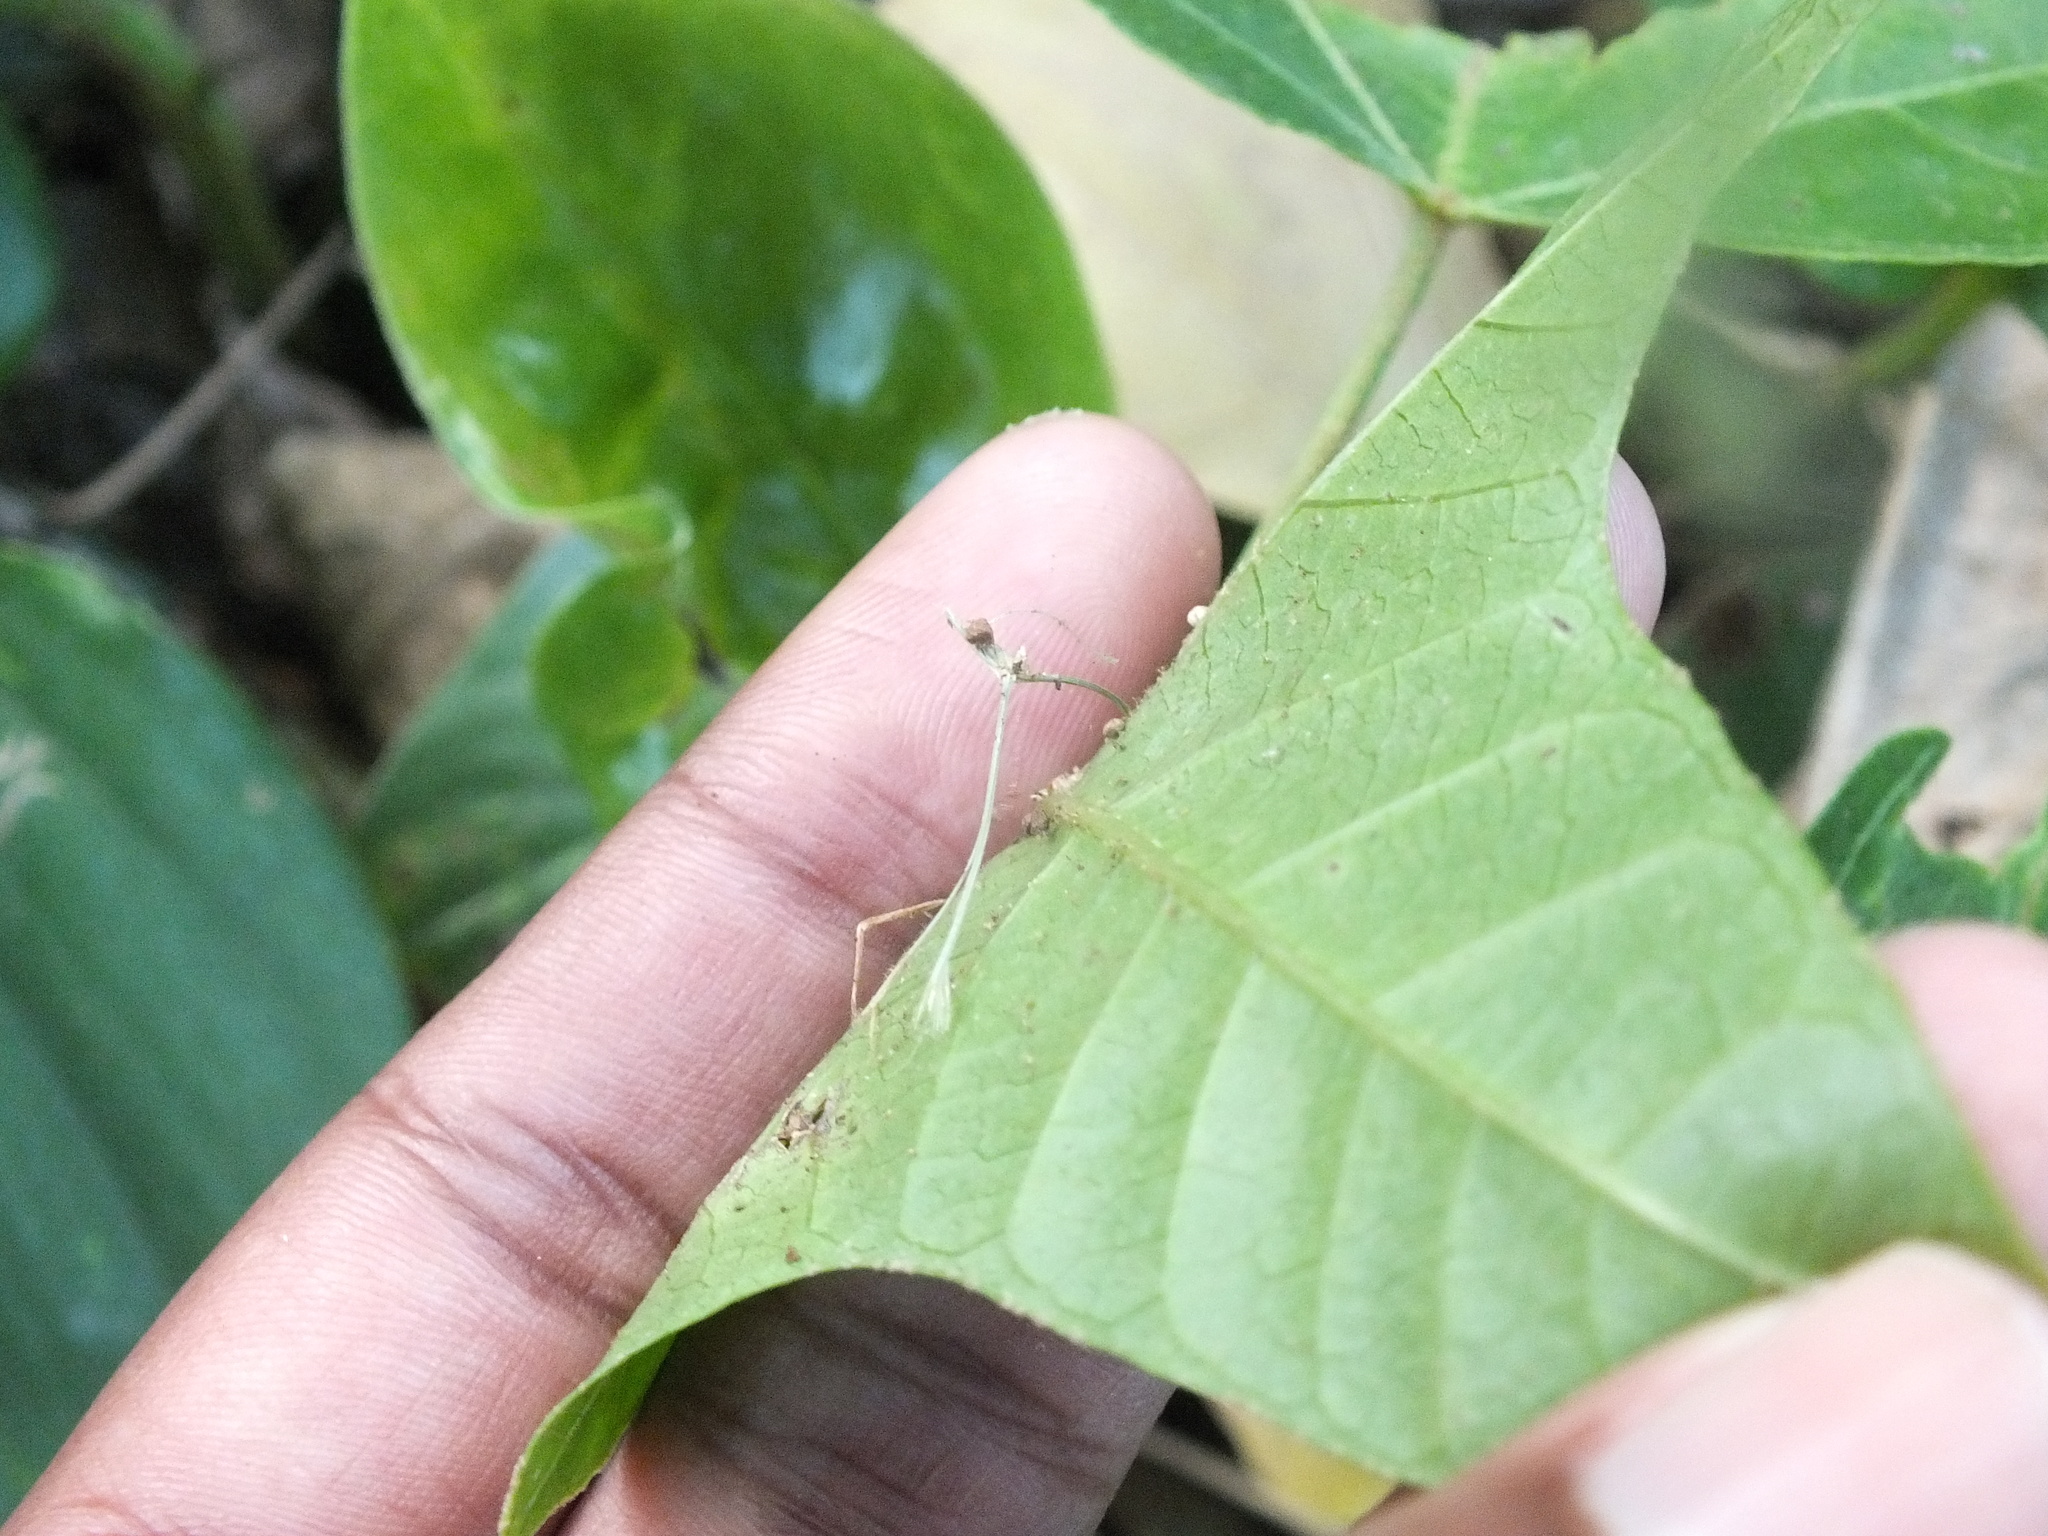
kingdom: Plantae
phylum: Tracheophyta
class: Magnoliopsida
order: Malpighiales
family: Euphorbiaceae
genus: Aleurites
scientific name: Aleurites moluccanus
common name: Candlenut tree
